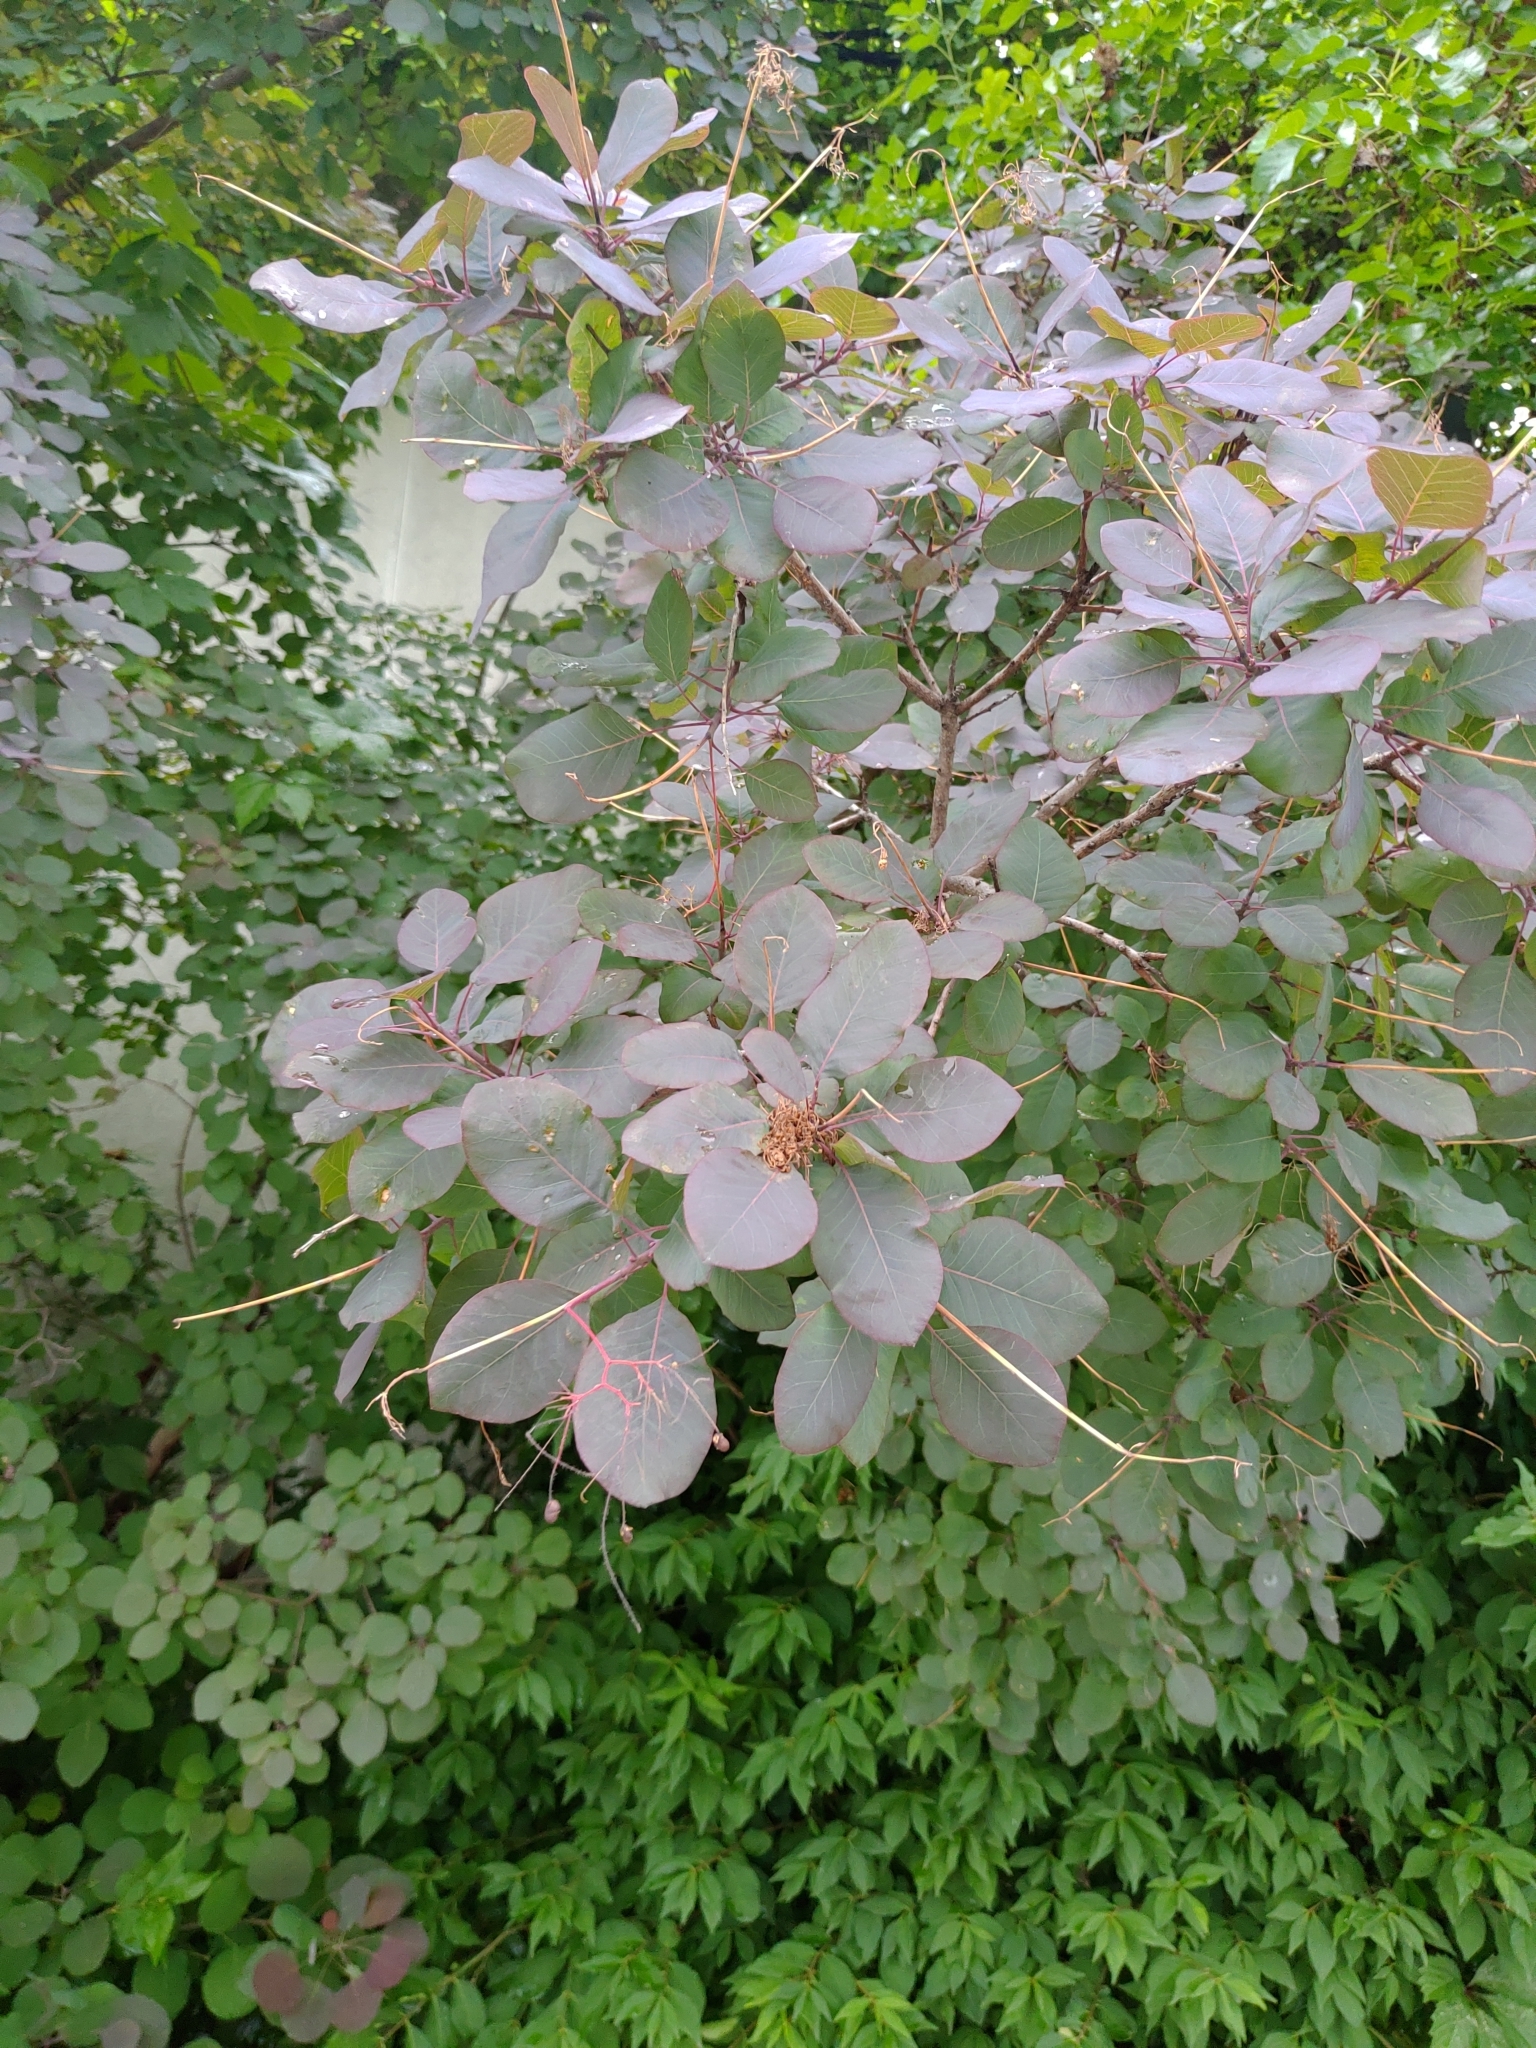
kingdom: Plantae
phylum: Tracheophyta
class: Magnoliopsida
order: Sapindales
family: Anacardiaceae
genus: Cotinus
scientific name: Cotinus coggygria
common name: Smoke-tree
